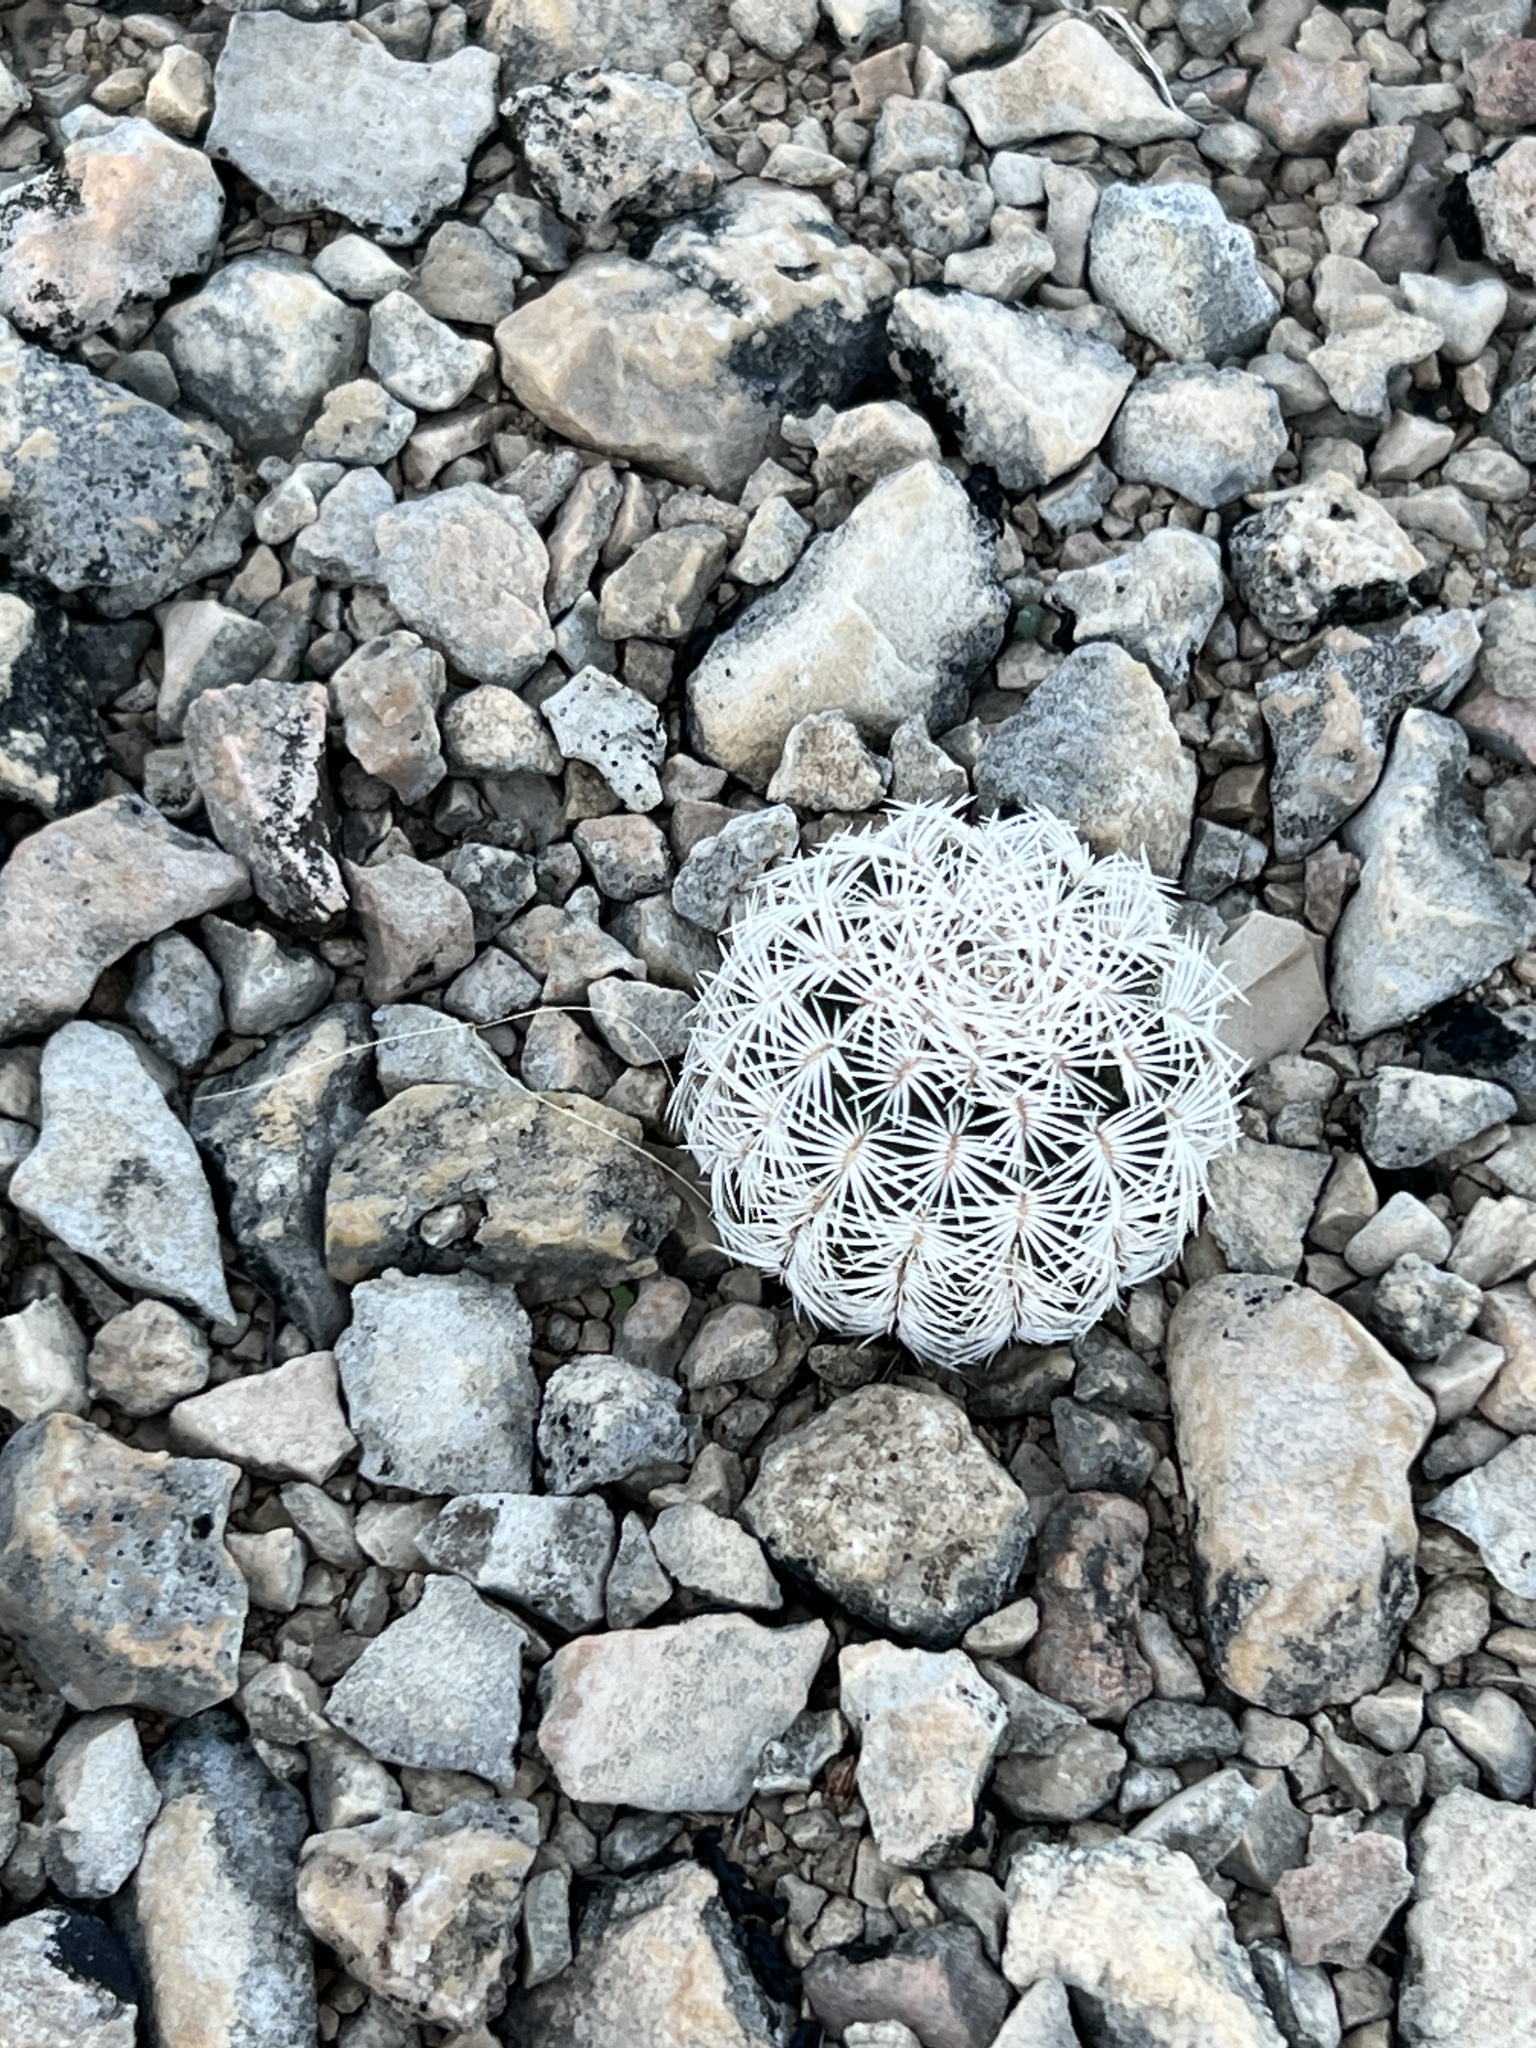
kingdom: Plantae
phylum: Tracheophyta
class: Magnoliopsida
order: Caryophyllales
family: Cactaceae
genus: Echinocereus
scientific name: Echinocereus reichenbachii
